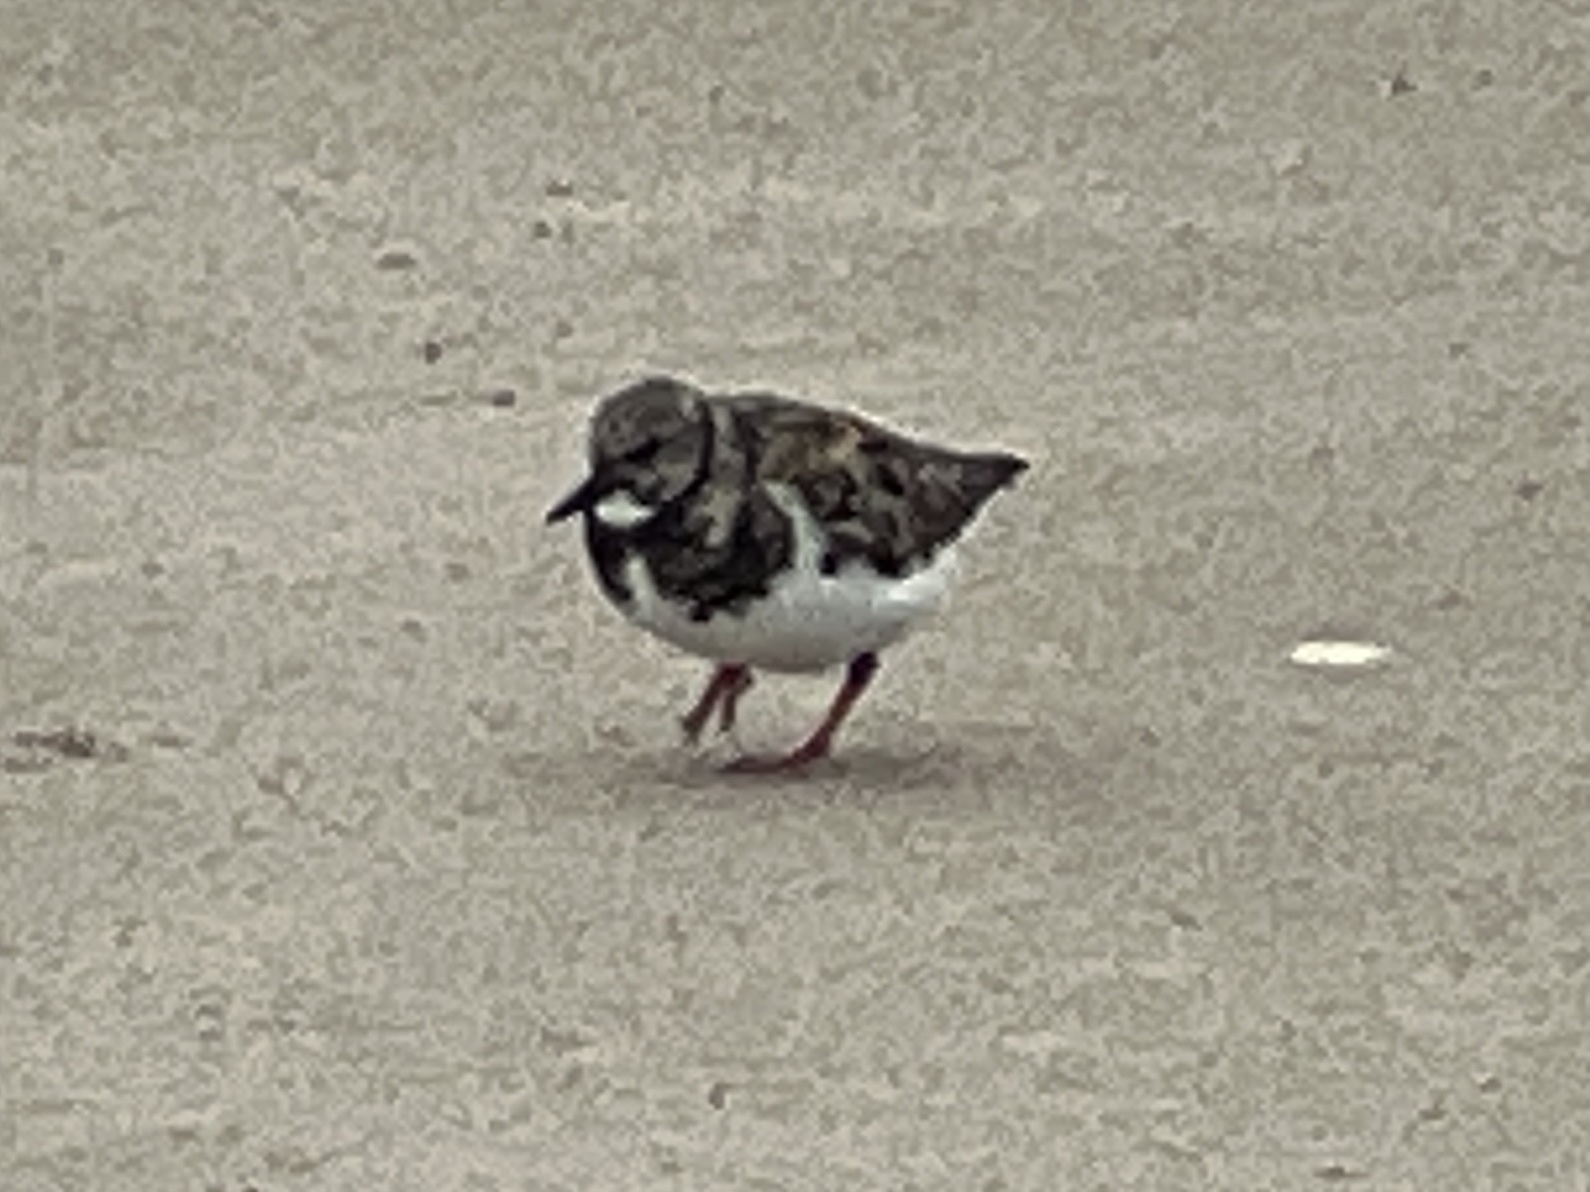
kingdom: Animalia
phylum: Chordata
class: Aves
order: Charadriiformes
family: Scolopacidae
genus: Arenaria
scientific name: Arenaria interpres
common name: Ruddy turnstone
